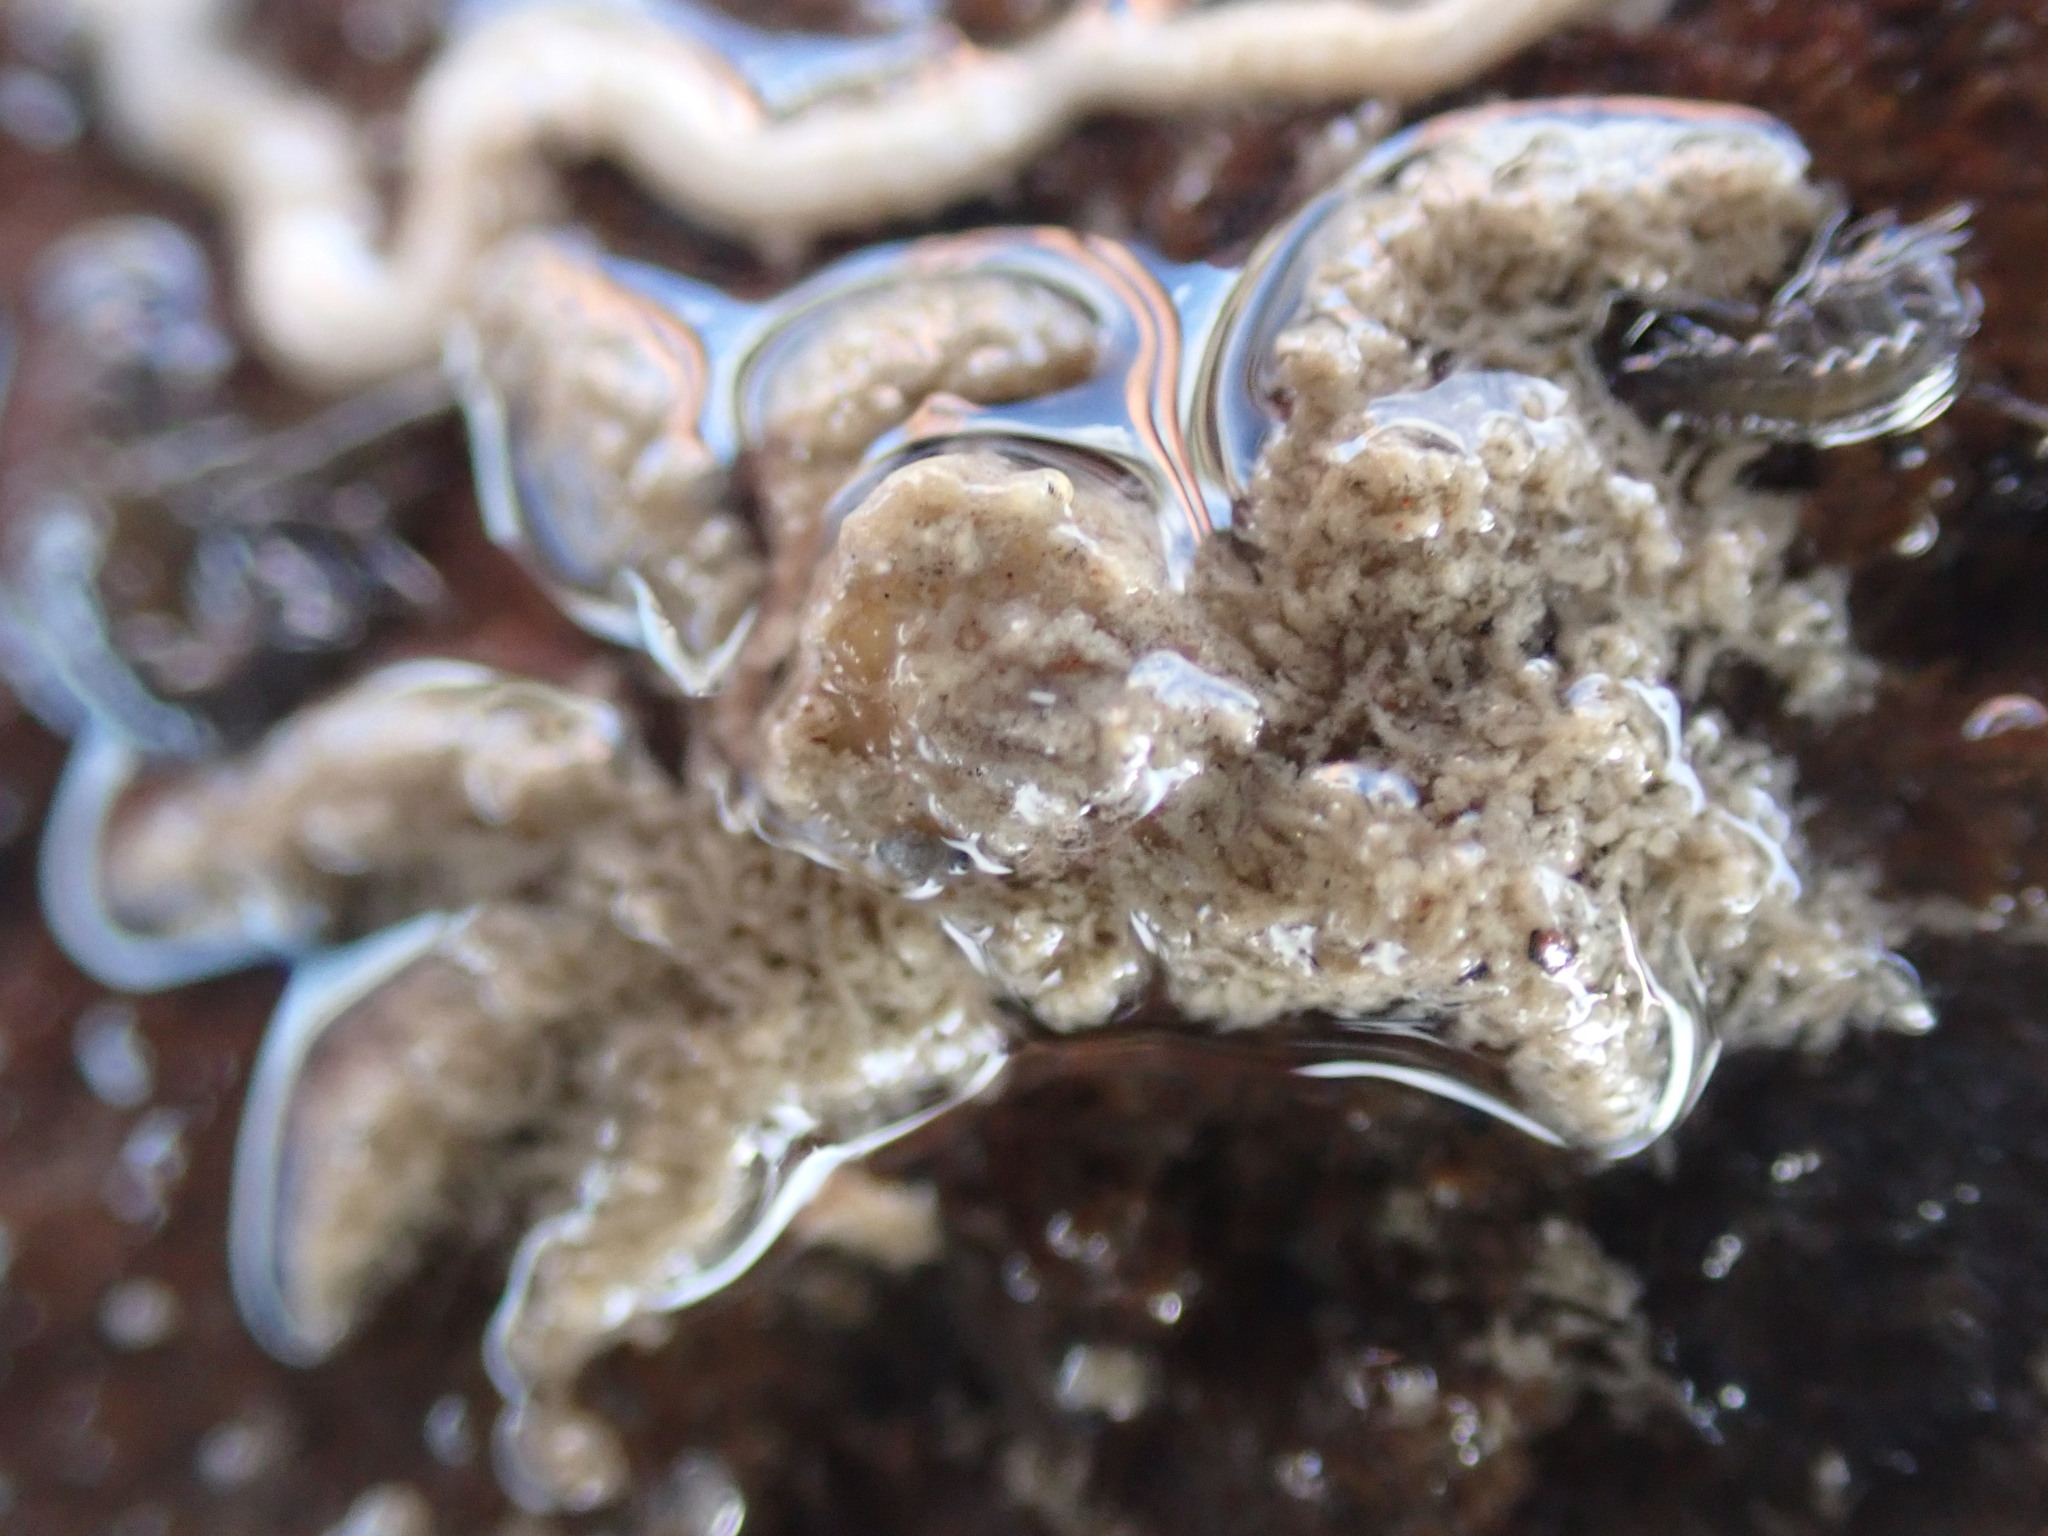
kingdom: Animalia
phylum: Arthropoda
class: Malacostraca
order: Decapoda
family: Hymenosomatidae
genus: Neohymenicus
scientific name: Neohymenicus pubescens
